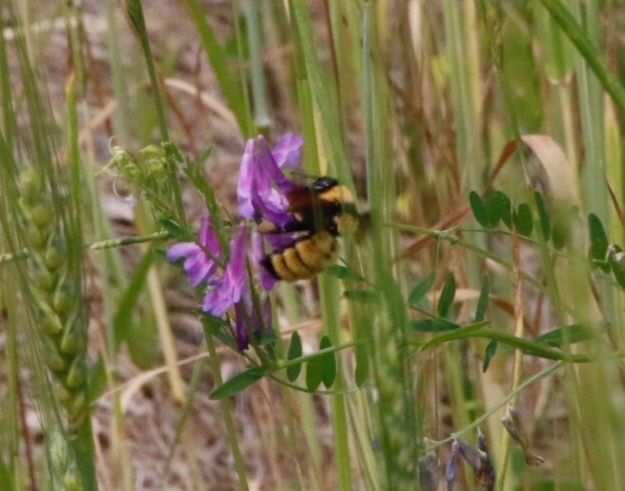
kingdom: Animalia
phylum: Arthropoda
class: Insecta
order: Hymenoptera
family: Apidae
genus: Bombus
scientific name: Bombus fervidus
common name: Yellow bumble bee
